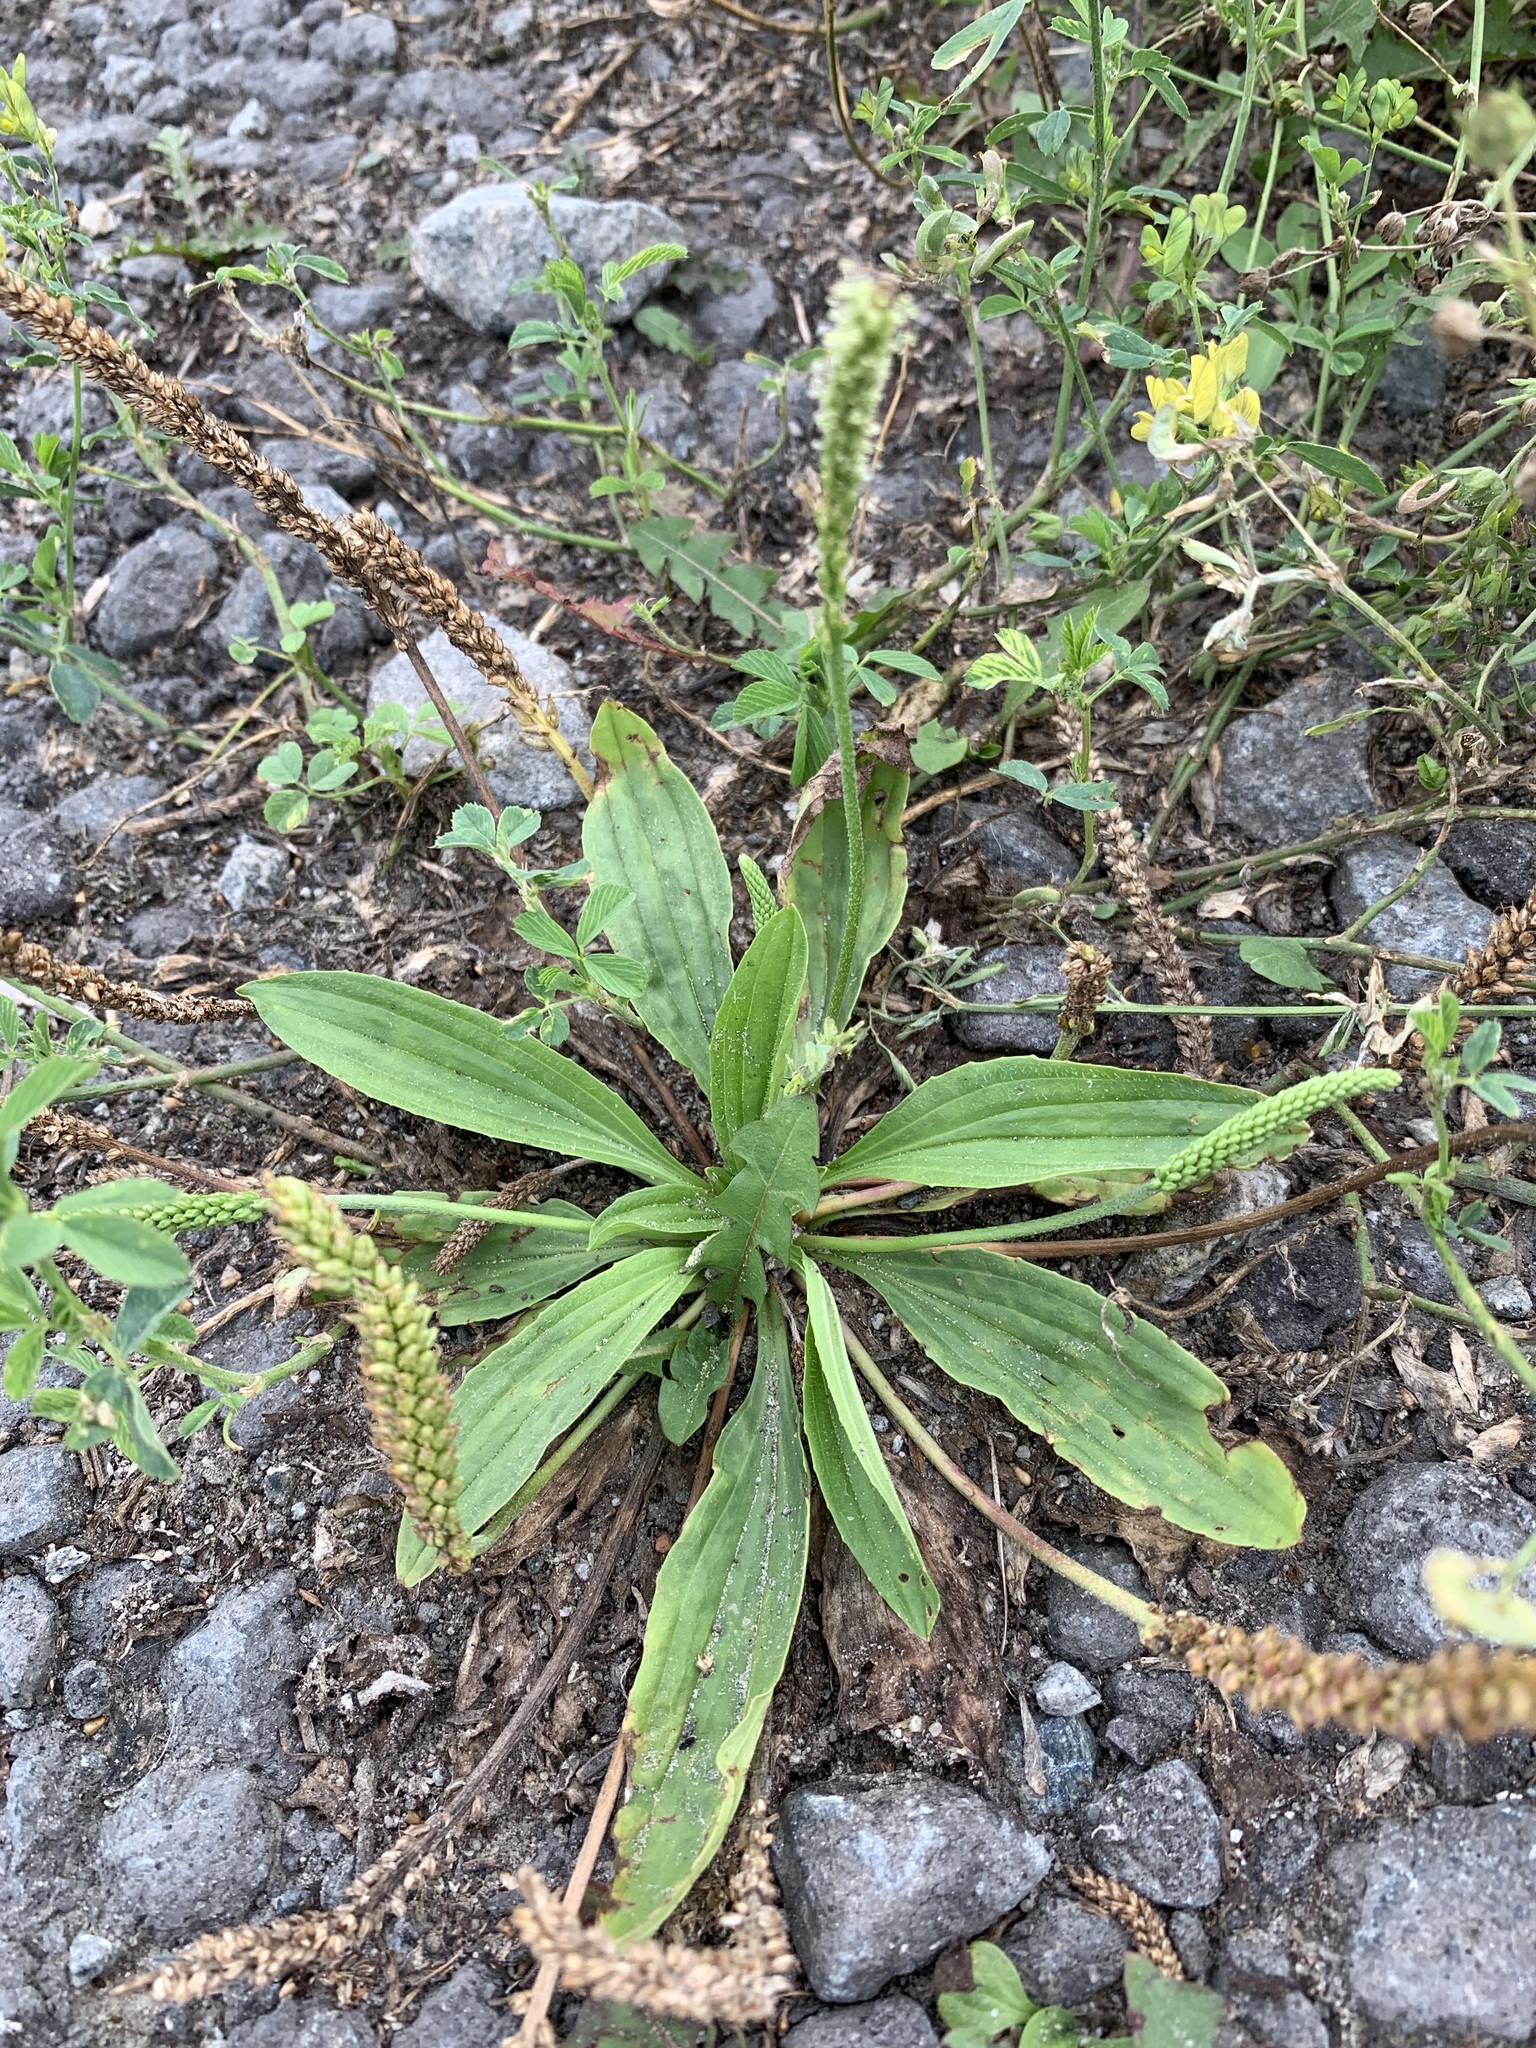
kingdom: Plantae
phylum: Tracheophyta
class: Magnoliopsida
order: Lamiales
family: Plantaginaceae
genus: Plantago
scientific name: Plantago depressa
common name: Depressed plantain
